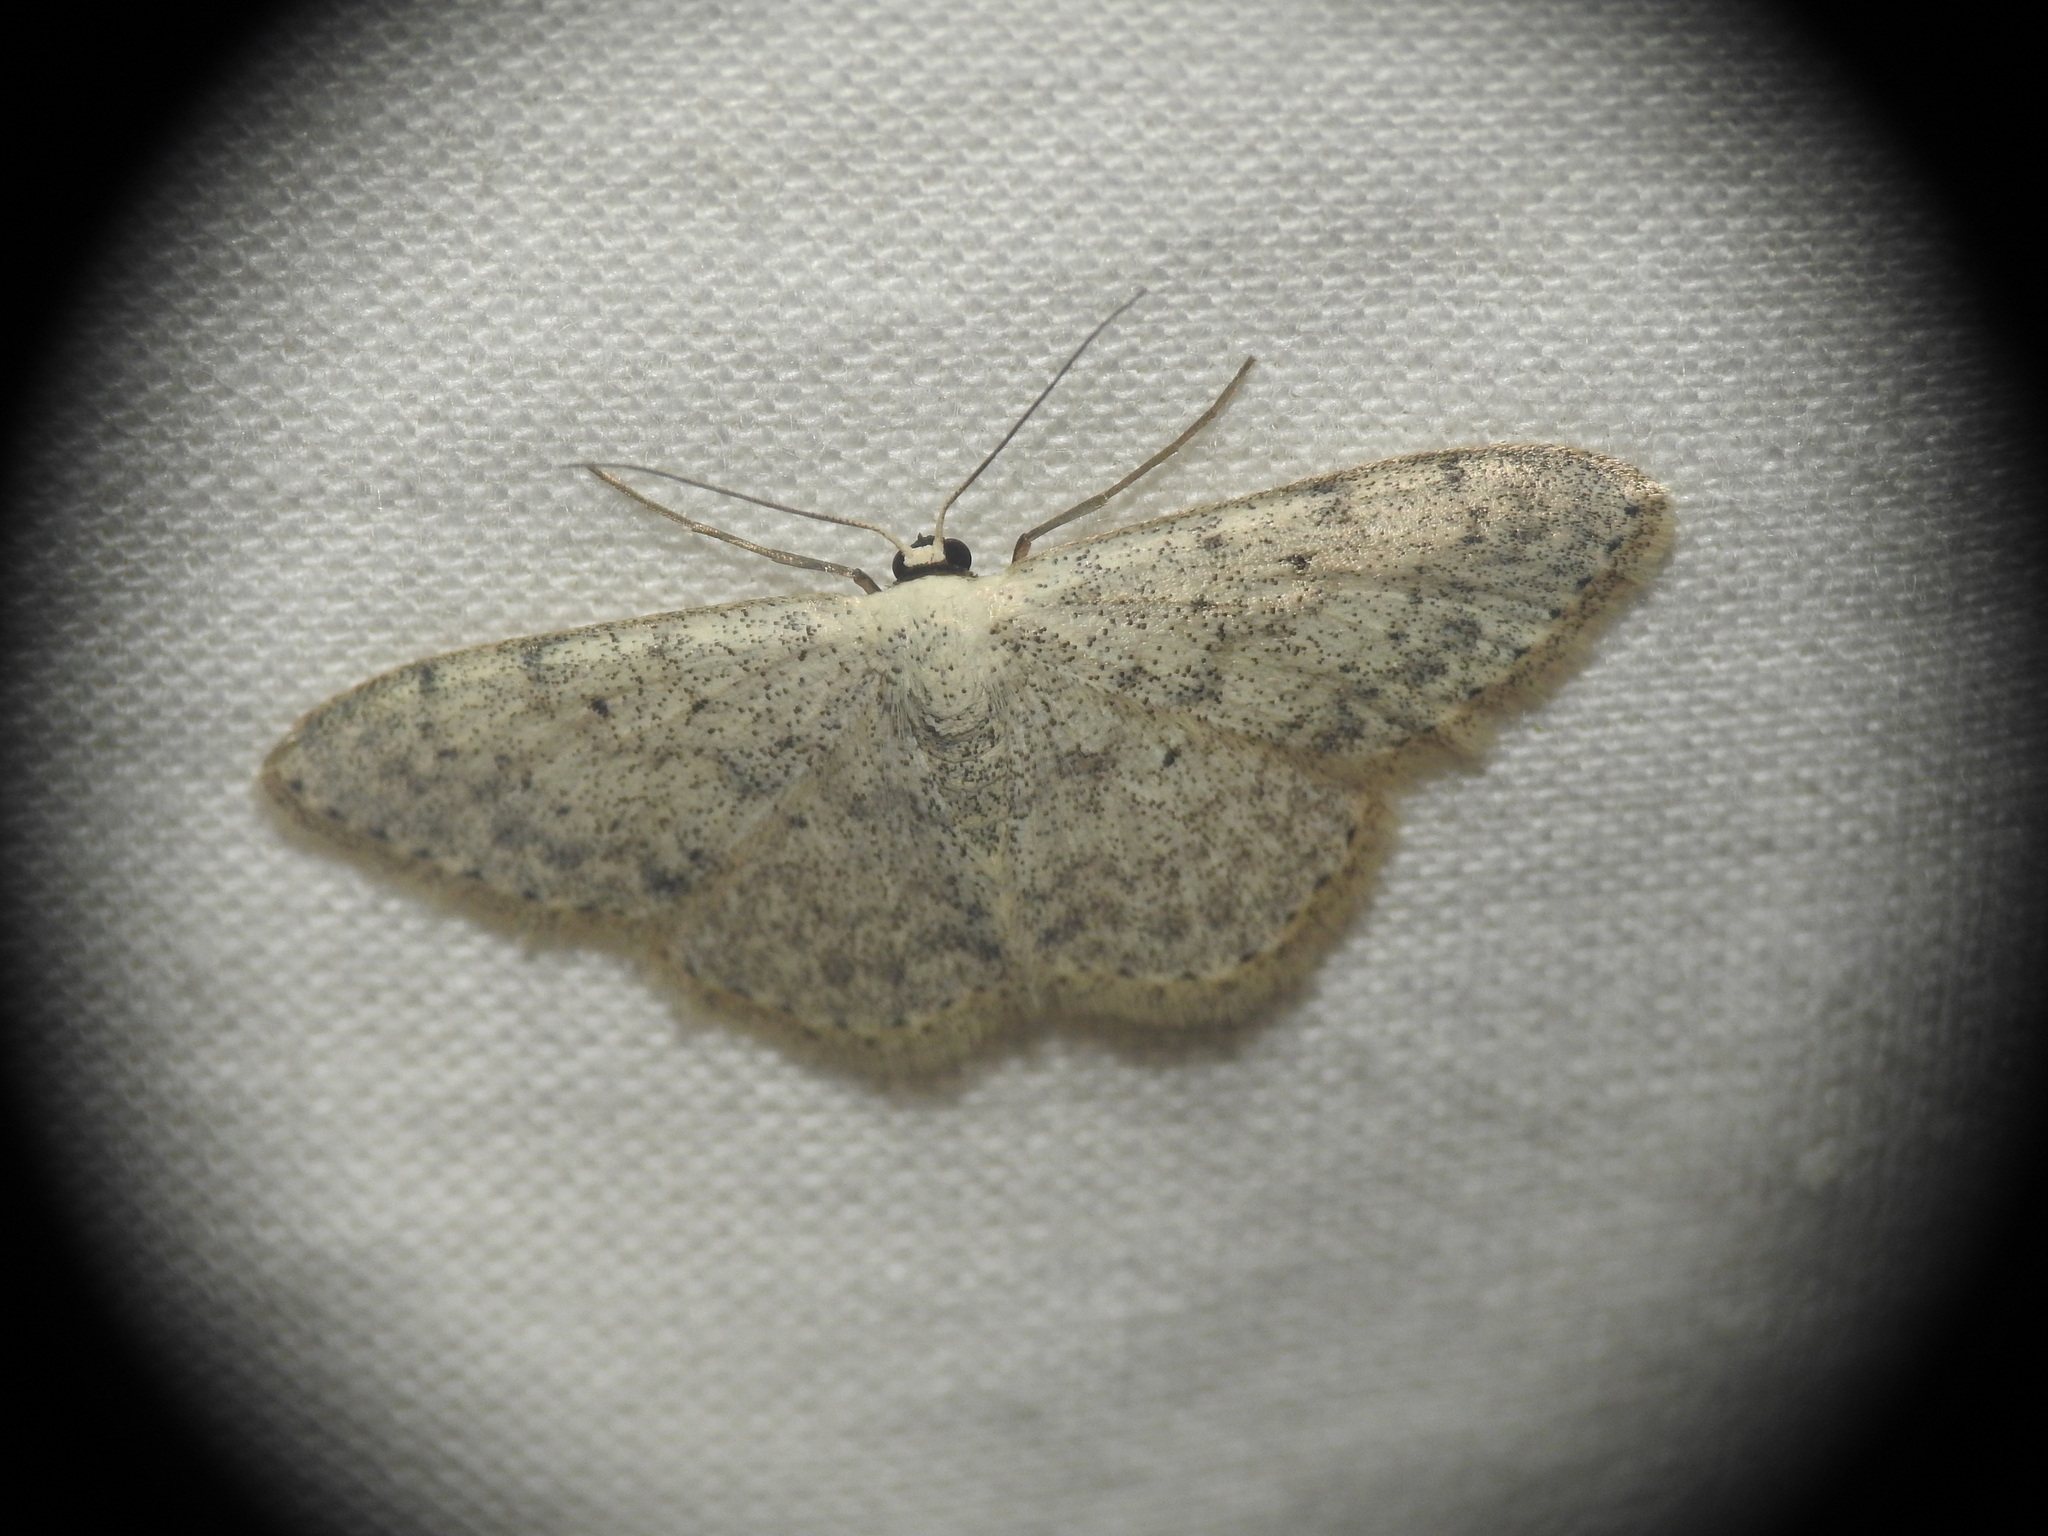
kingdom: Animalia
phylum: Arthropoda
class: Insecta
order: Lepidoptera
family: Geometridae
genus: Scopula
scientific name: Scopula marginepunctata
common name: Mullein wave
